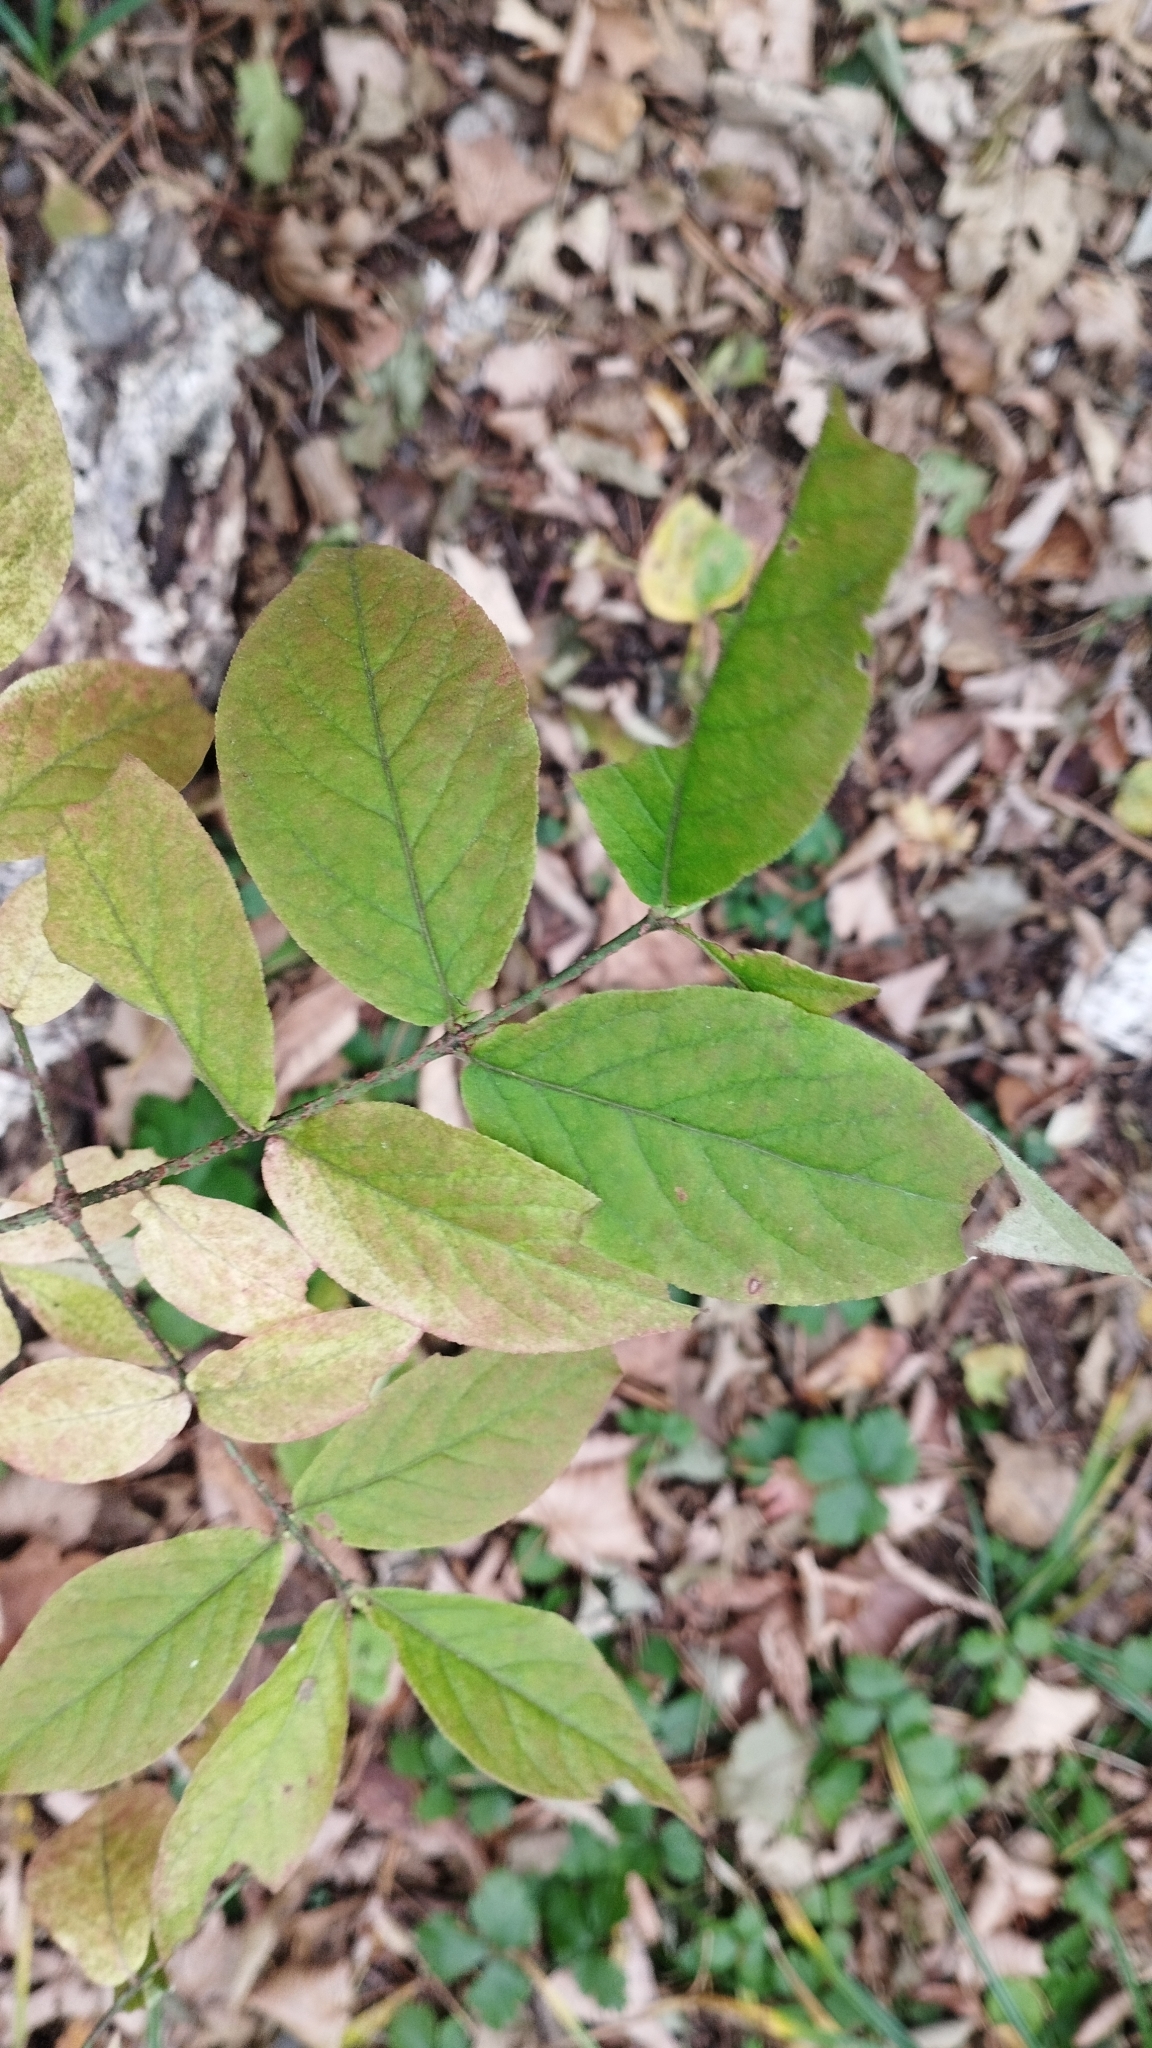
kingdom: Plantae
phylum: Tracheophyta
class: Magnoliopsida
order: Celastrales
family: Celastraceae
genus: Euonymus
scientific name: Euonymus verrucosus
